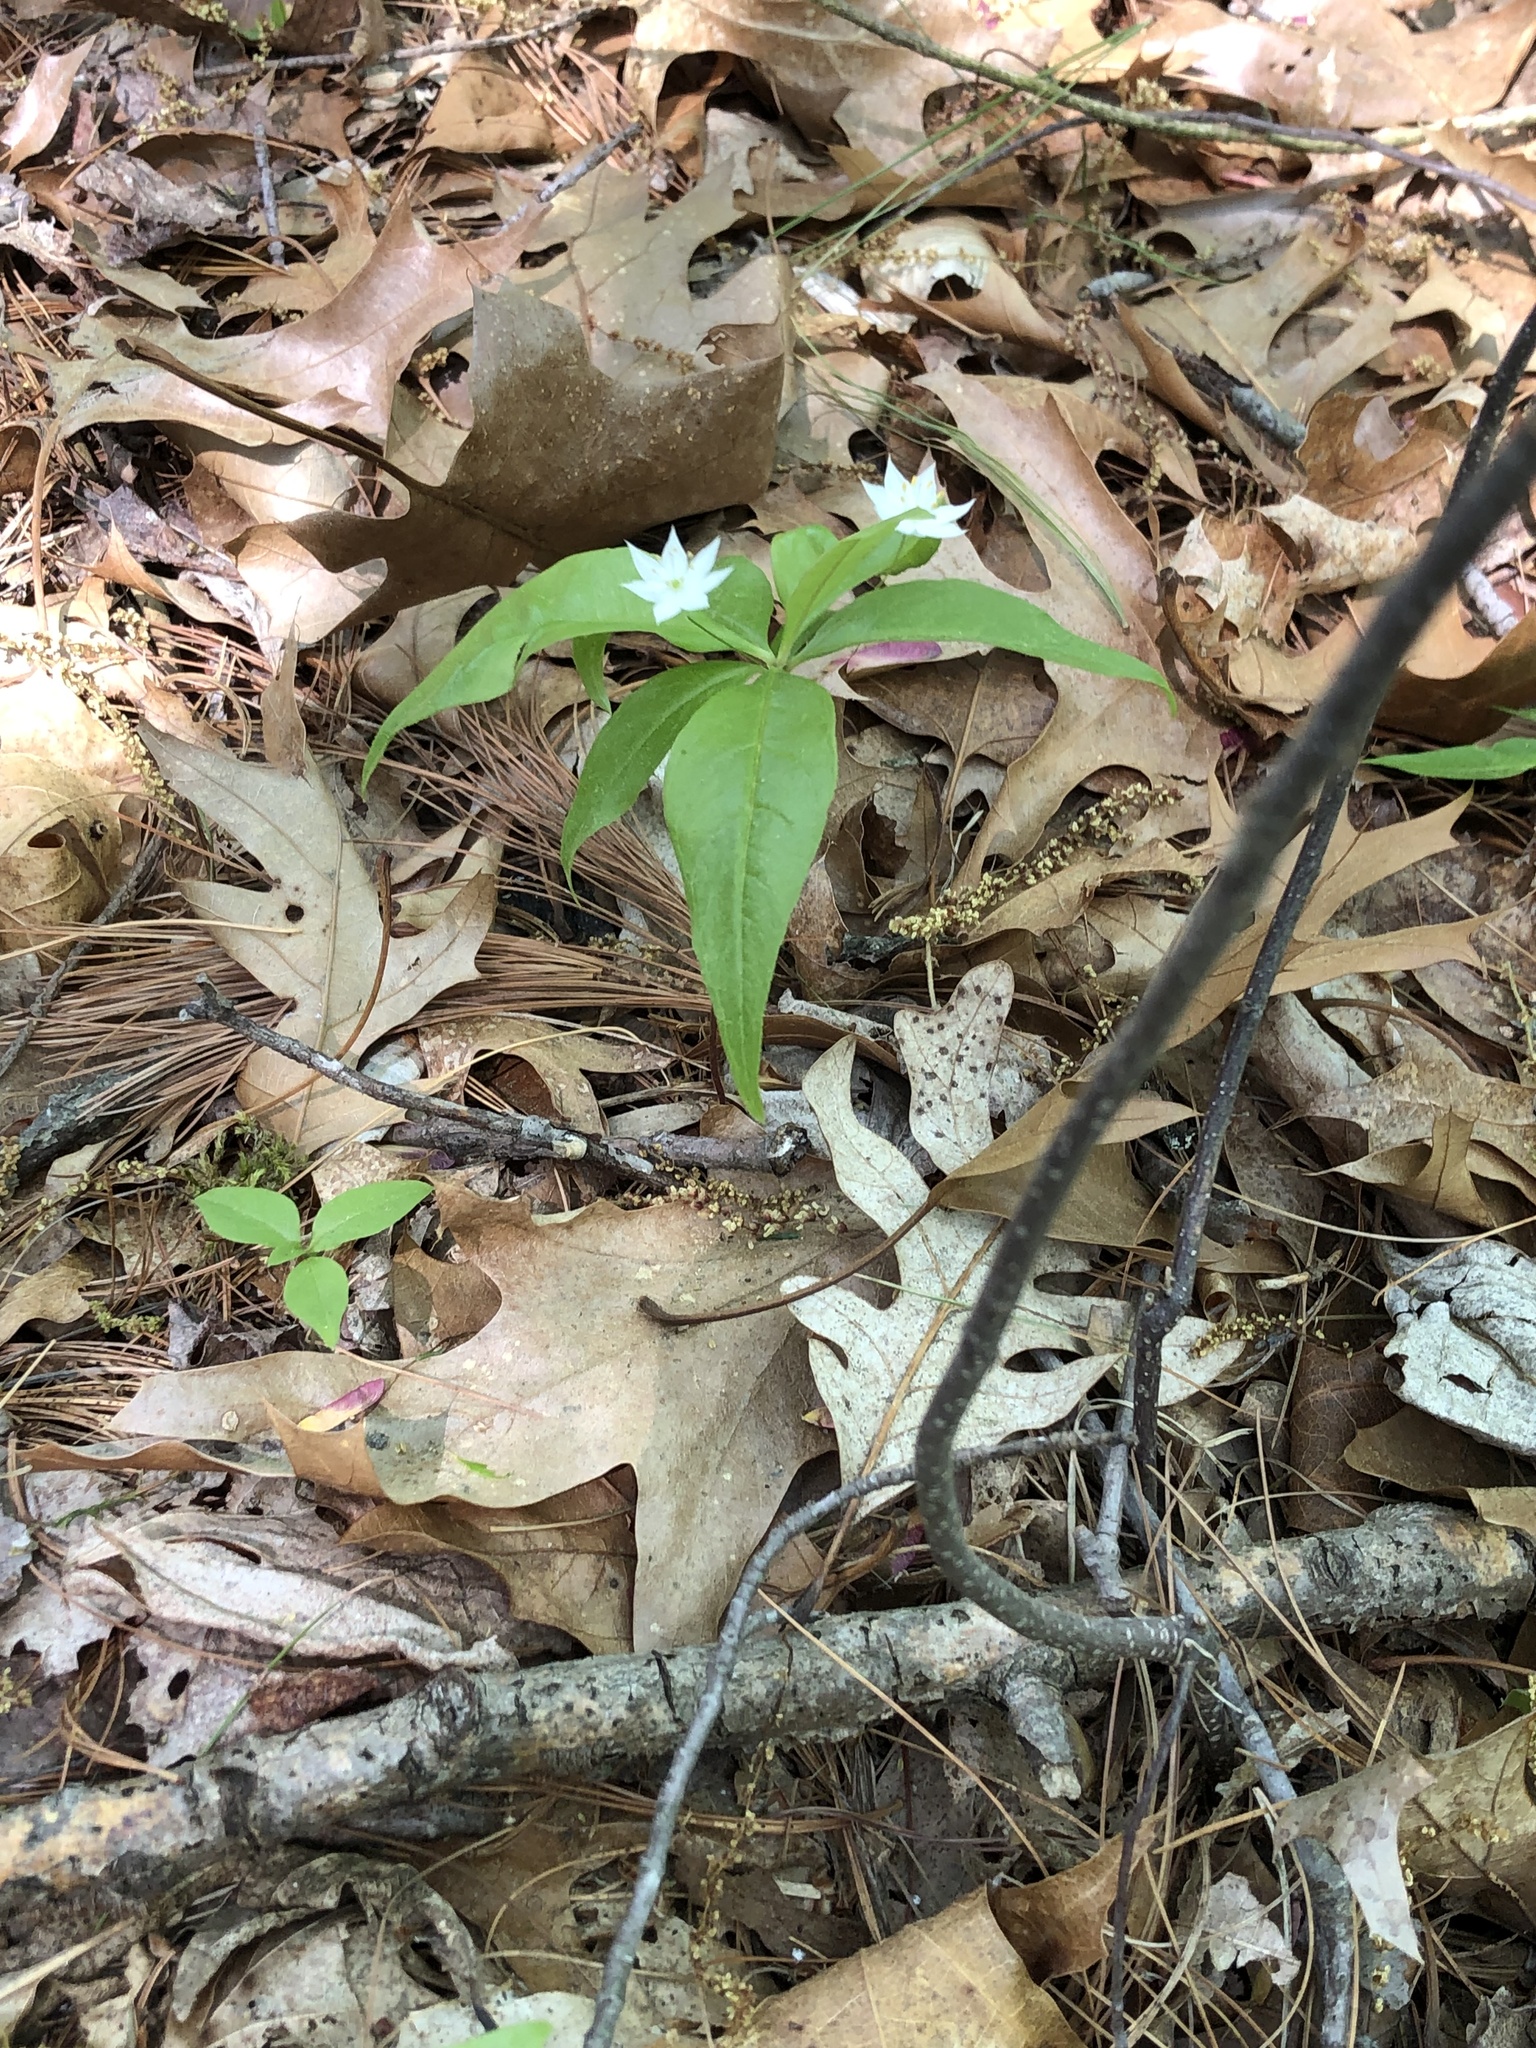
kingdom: Plantae
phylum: Tracheophyta
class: Magnoliopsida
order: Ericales
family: Primulaceae
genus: Lysimachia
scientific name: Lysimachia borealis
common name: American starflower
